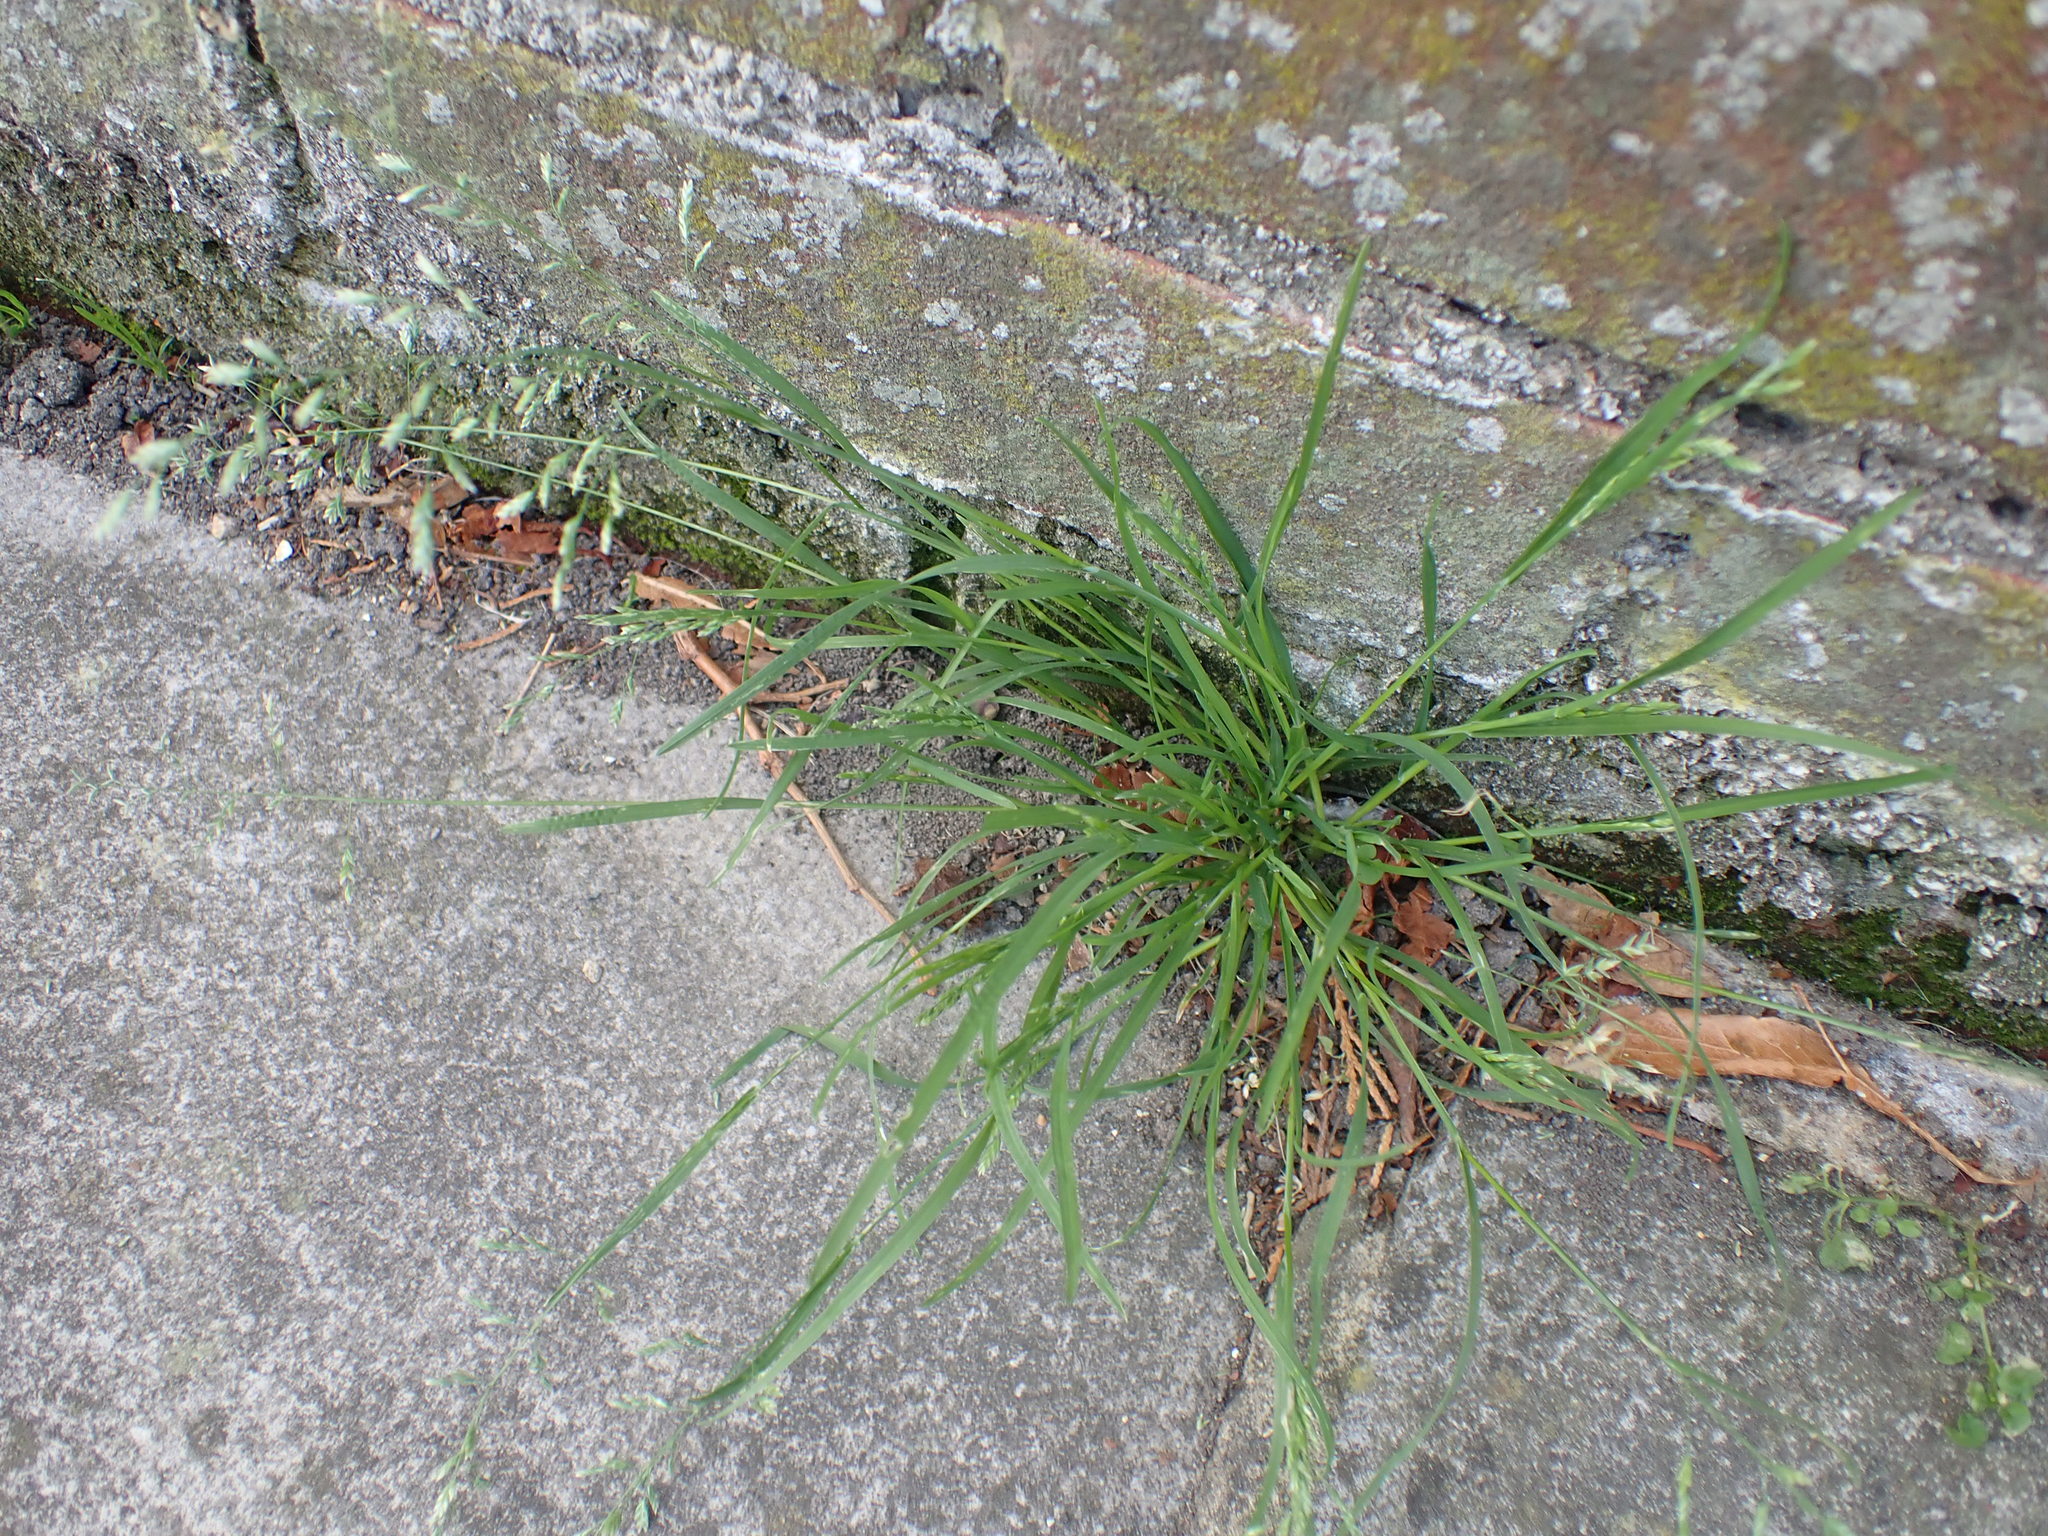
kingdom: Plantae
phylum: Tracheophyta
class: Liliopsida
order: Poales
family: Poaceae
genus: Poa
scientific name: Poa annua
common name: Annual bluegrass
